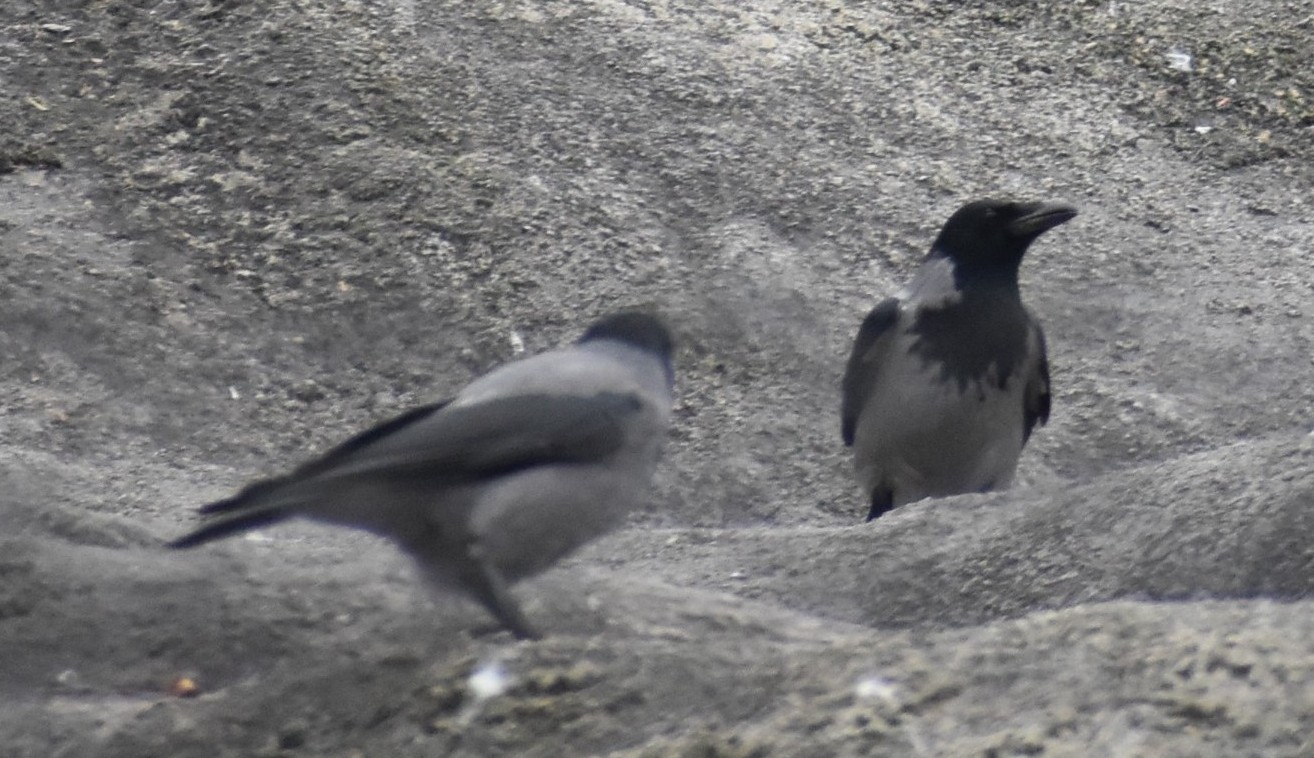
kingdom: Animalia
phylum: Chordata
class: Aves
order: Passeriformes
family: Corvidae
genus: Corvus
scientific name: Corvus cornix
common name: Hooded crow
